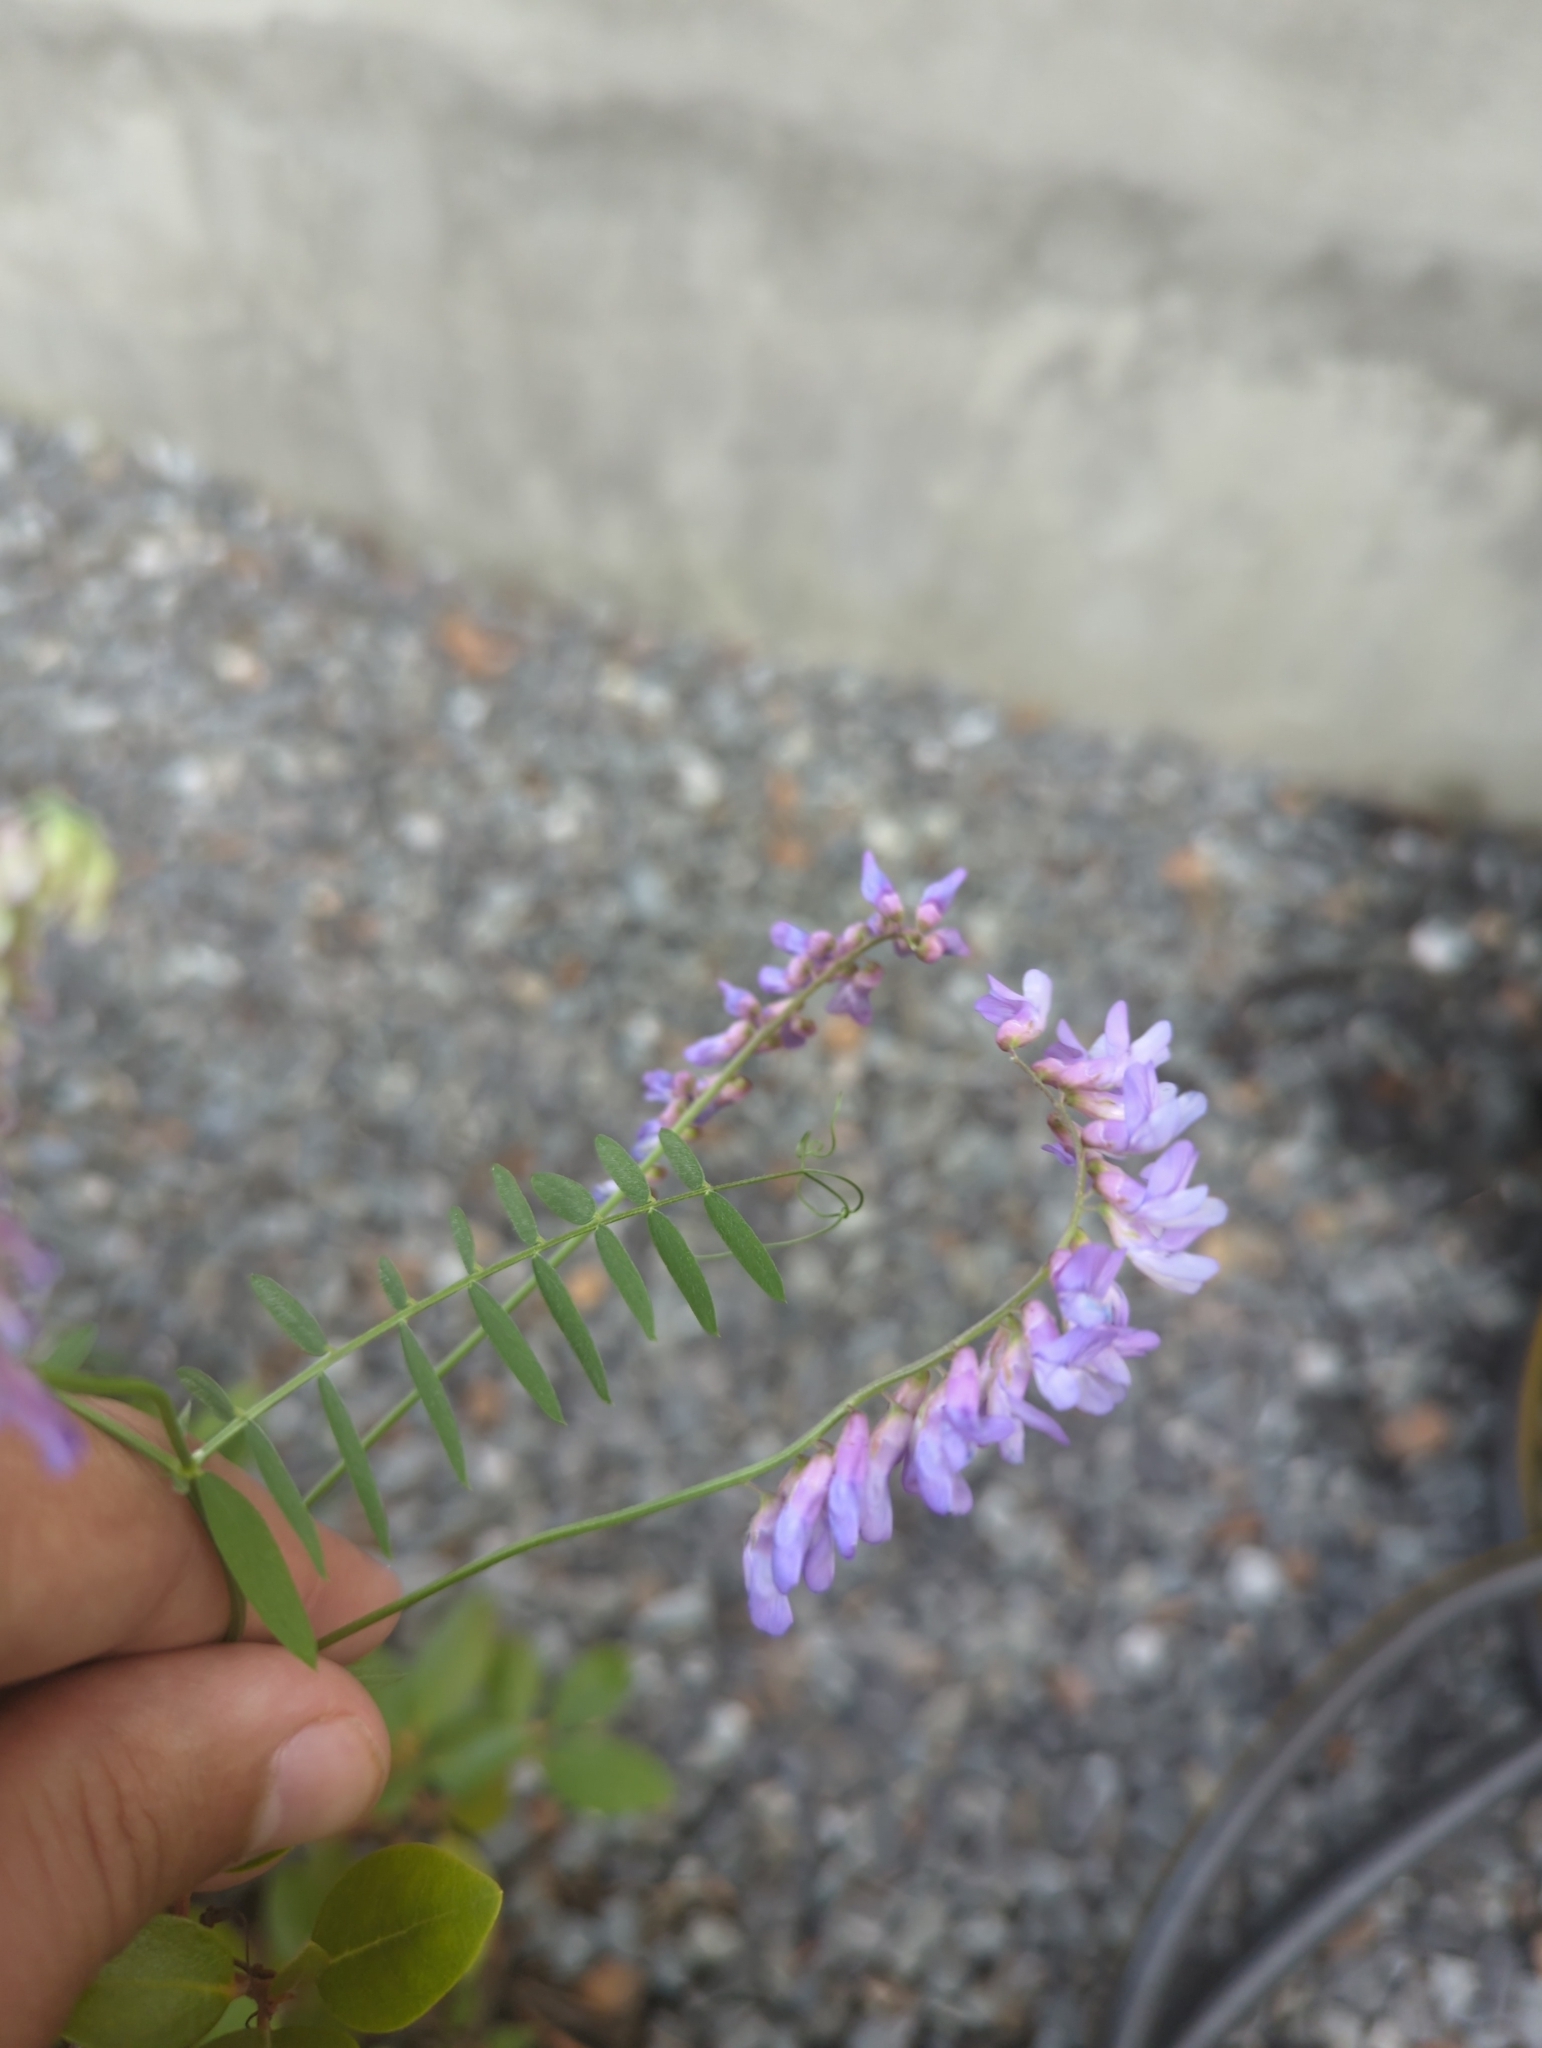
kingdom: Plantae
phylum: Tracheophyta
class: Magnoliopsida
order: Fabales
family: Fabaceae
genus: Vicia
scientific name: Vicia cracca
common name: Bird vetch
